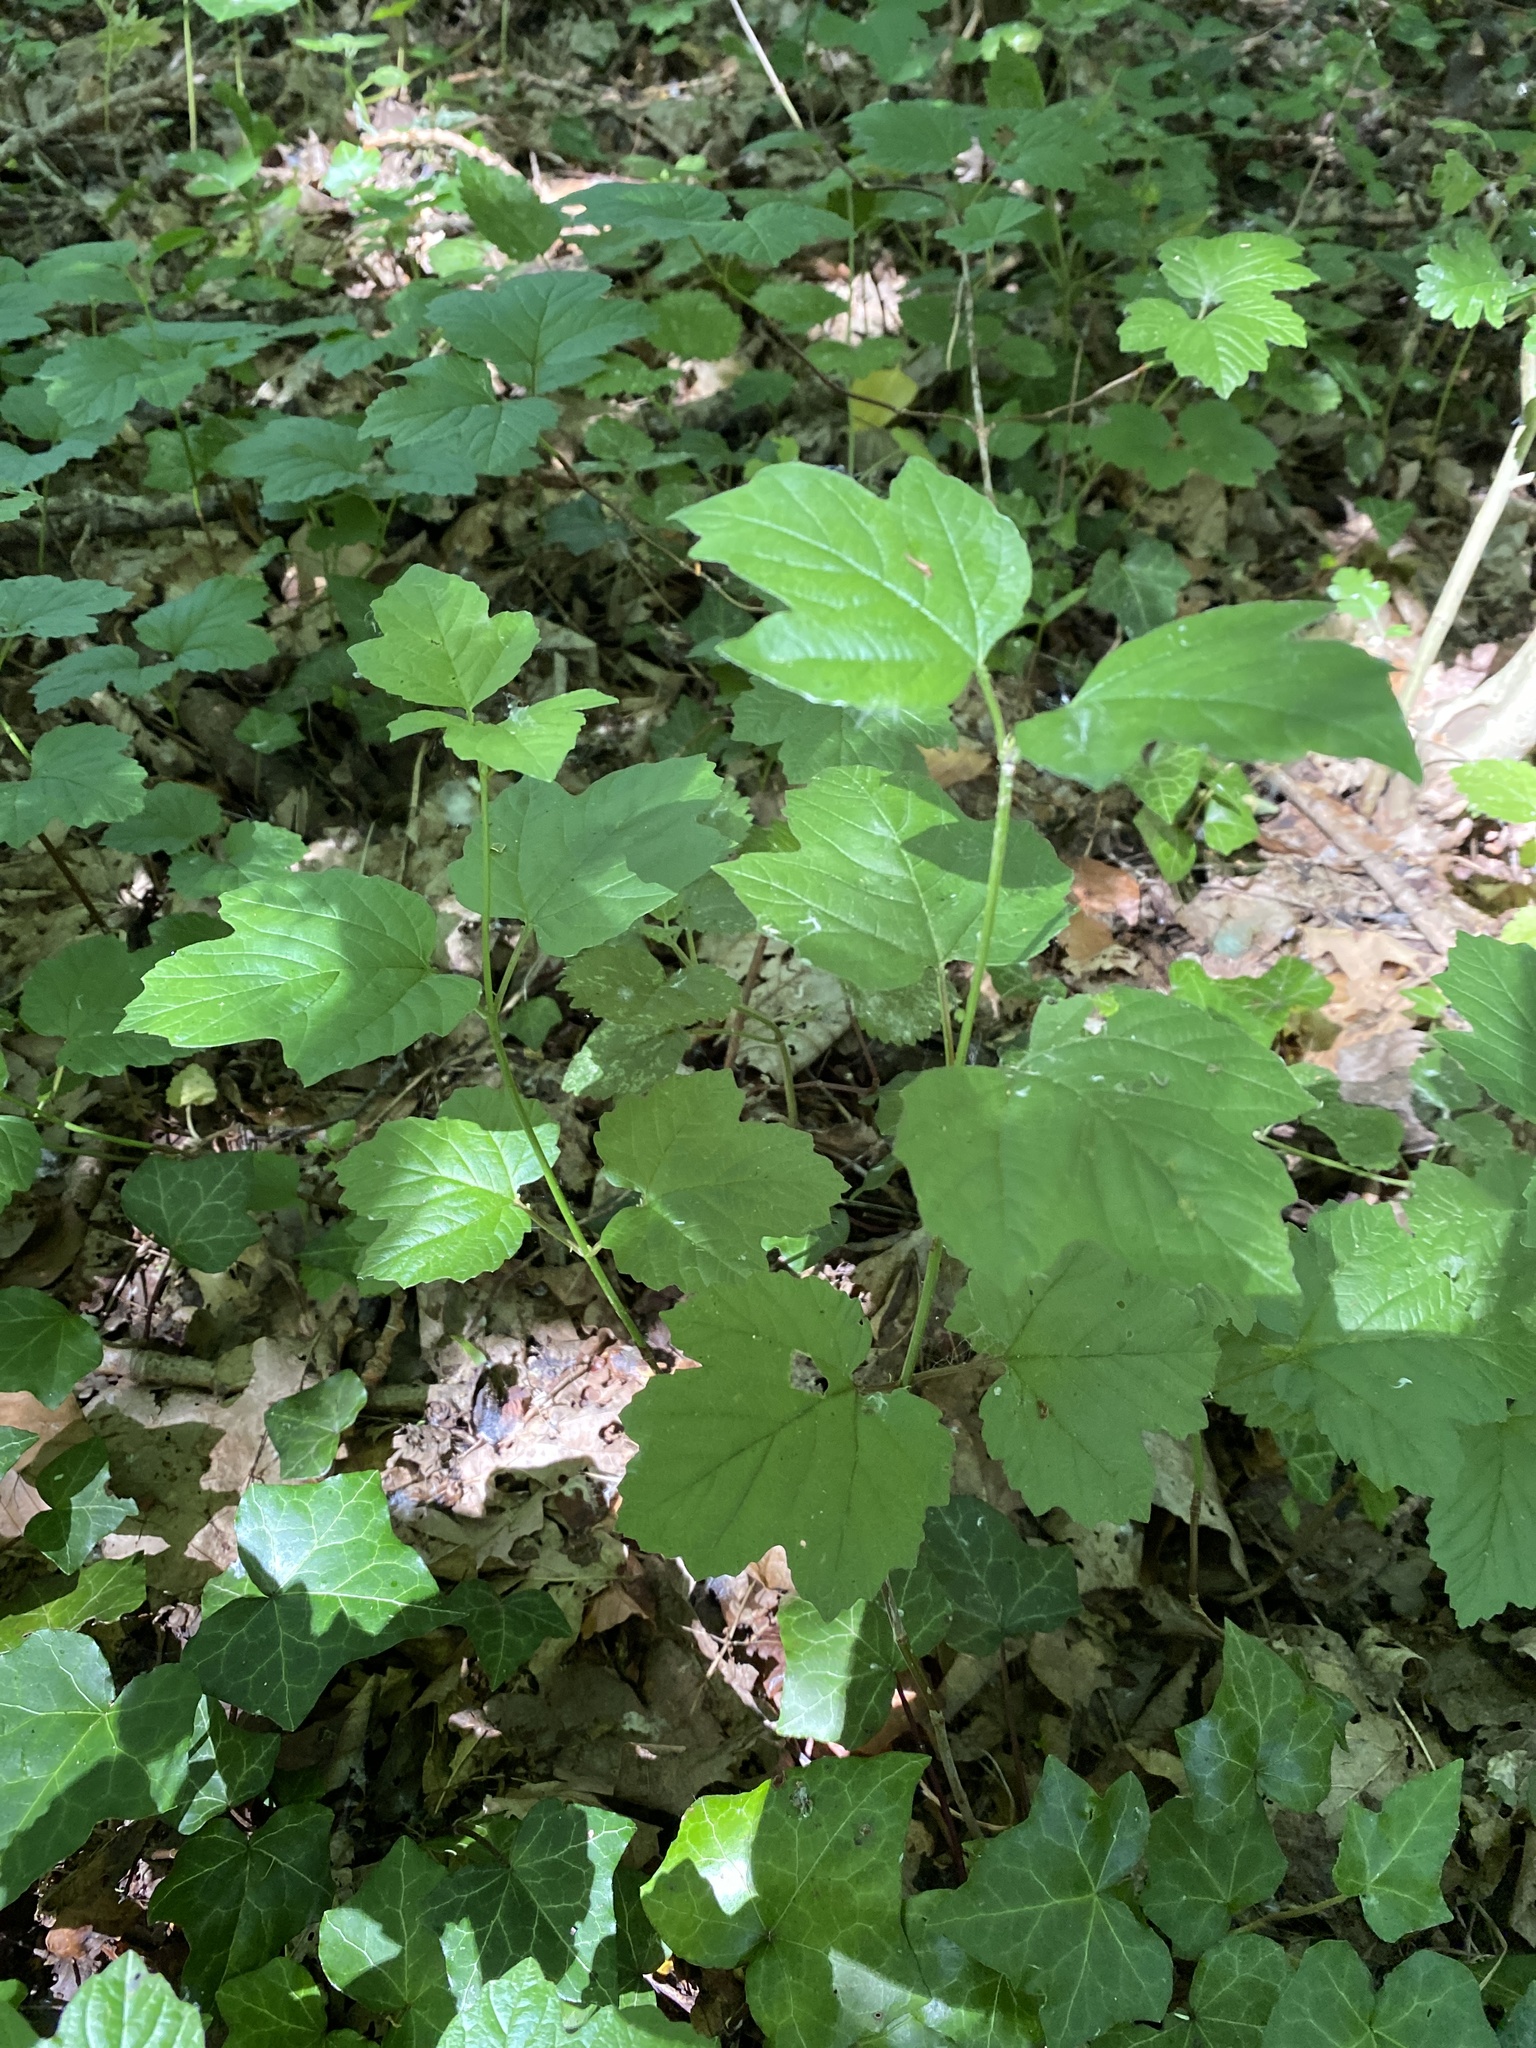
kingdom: Plantae
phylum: Tracheophyta
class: Magnoliopsida
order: Dipsacales
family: Viburnaceae
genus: Viburnum
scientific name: Viburnum opulus
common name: Guelder-rose
